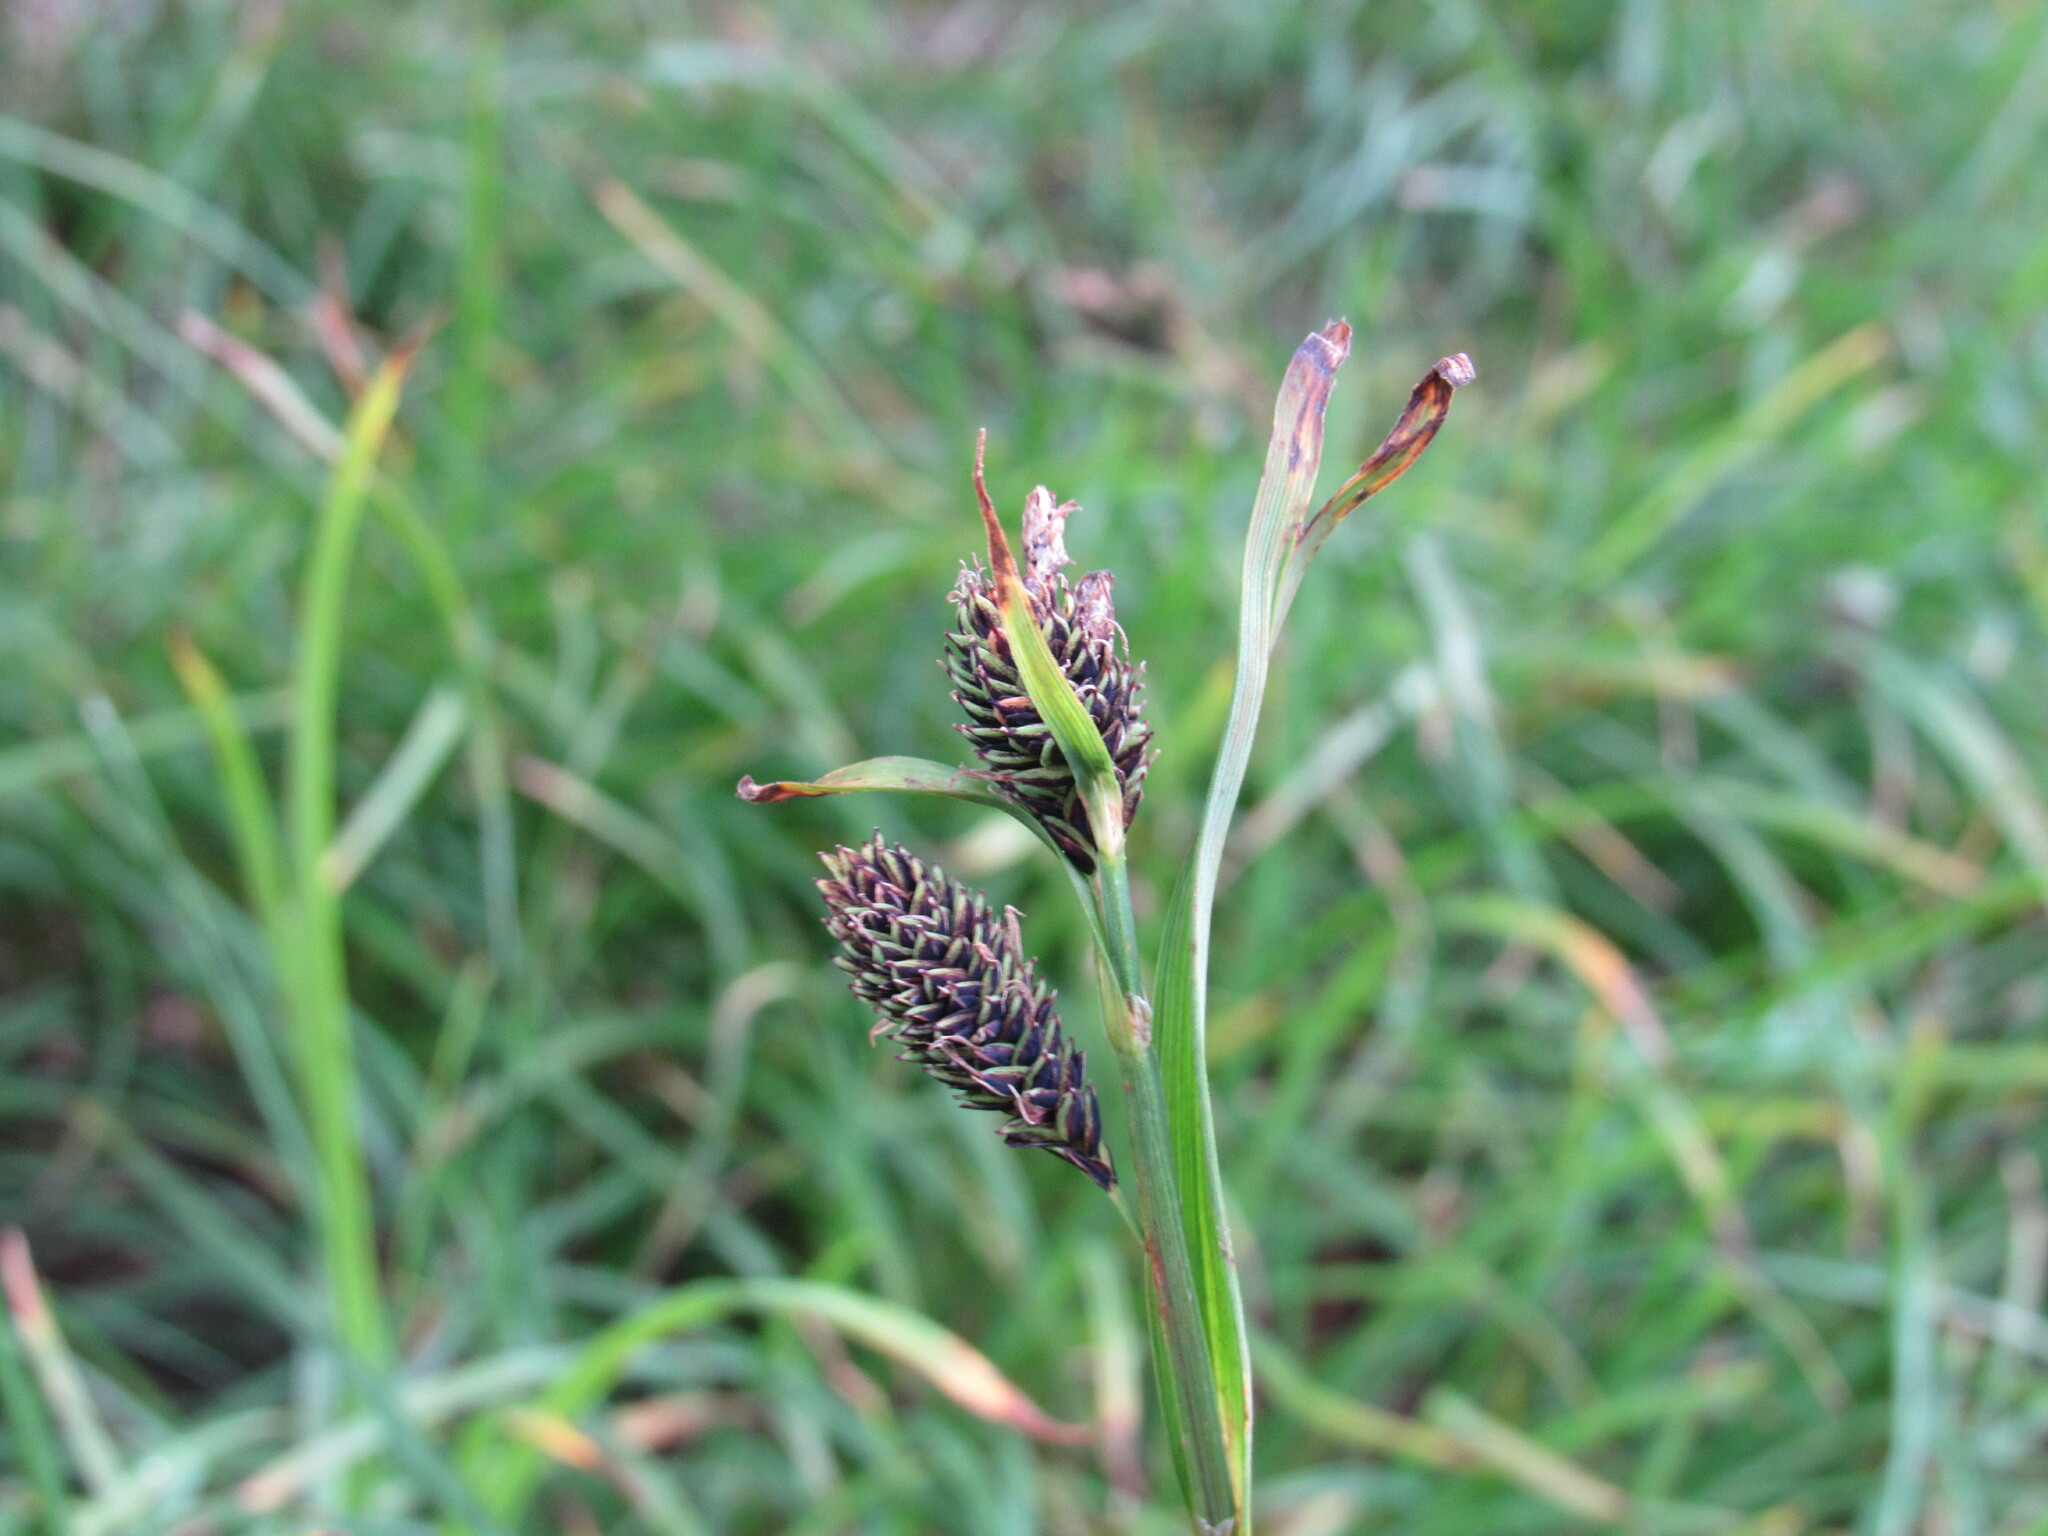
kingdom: Plantae
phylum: Tracheophyta
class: Liliopsida
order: Poales
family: Cyperaceae
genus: Carex
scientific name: Carex spectabilis
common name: Northwestern showy sedge
